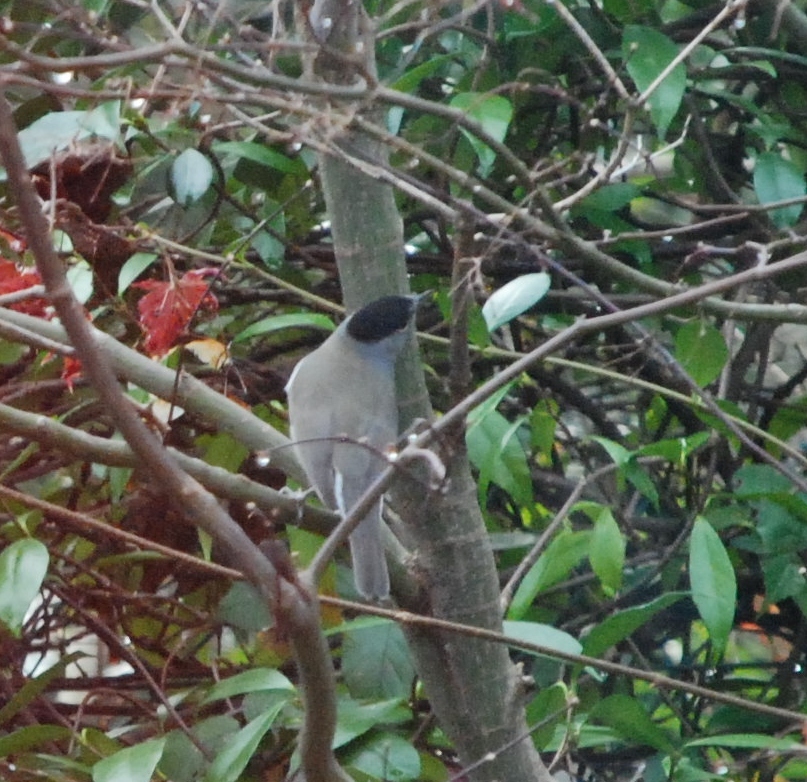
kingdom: Animalia
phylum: Chordata
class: Aves
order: Passeriformes
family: Sylviidae
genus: Sylvia
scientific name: Sylvia atricapilla
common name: Eurasian blackcap
